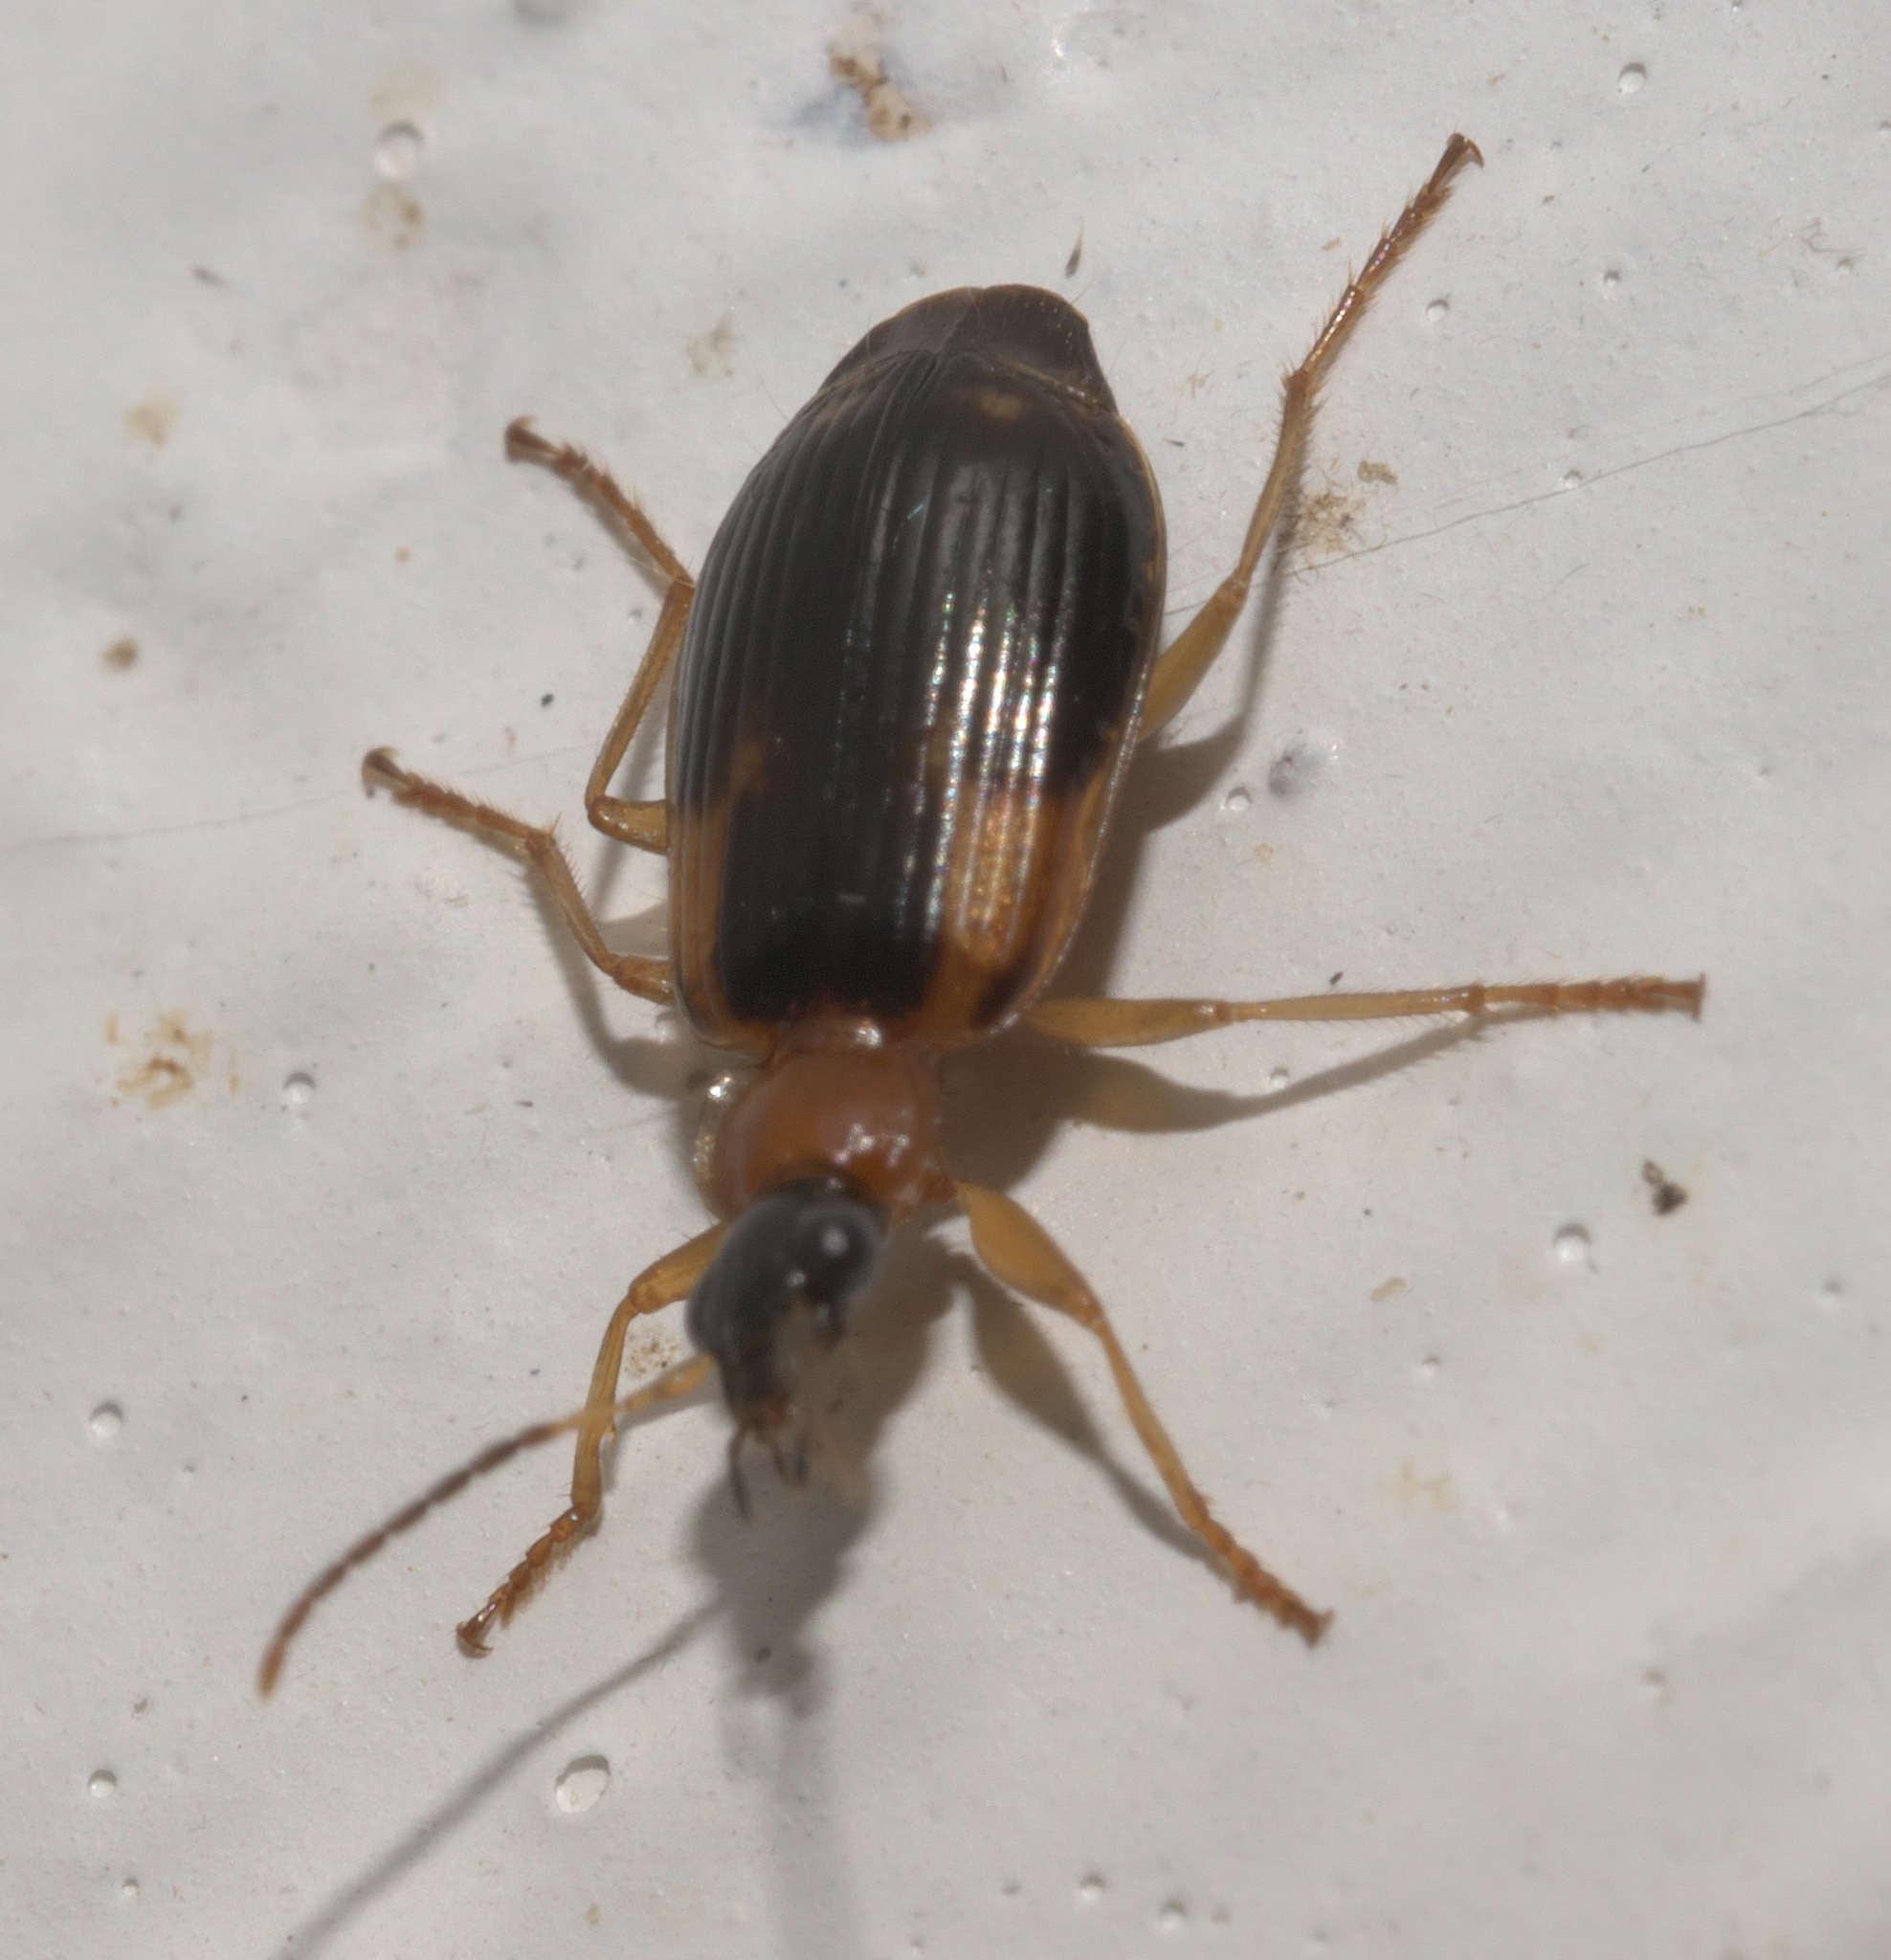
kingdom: Animalia
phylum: Arthropoda
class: Insecta
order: Coleoptera
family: Carabidae
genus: Lebia
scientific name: Lebia analis
